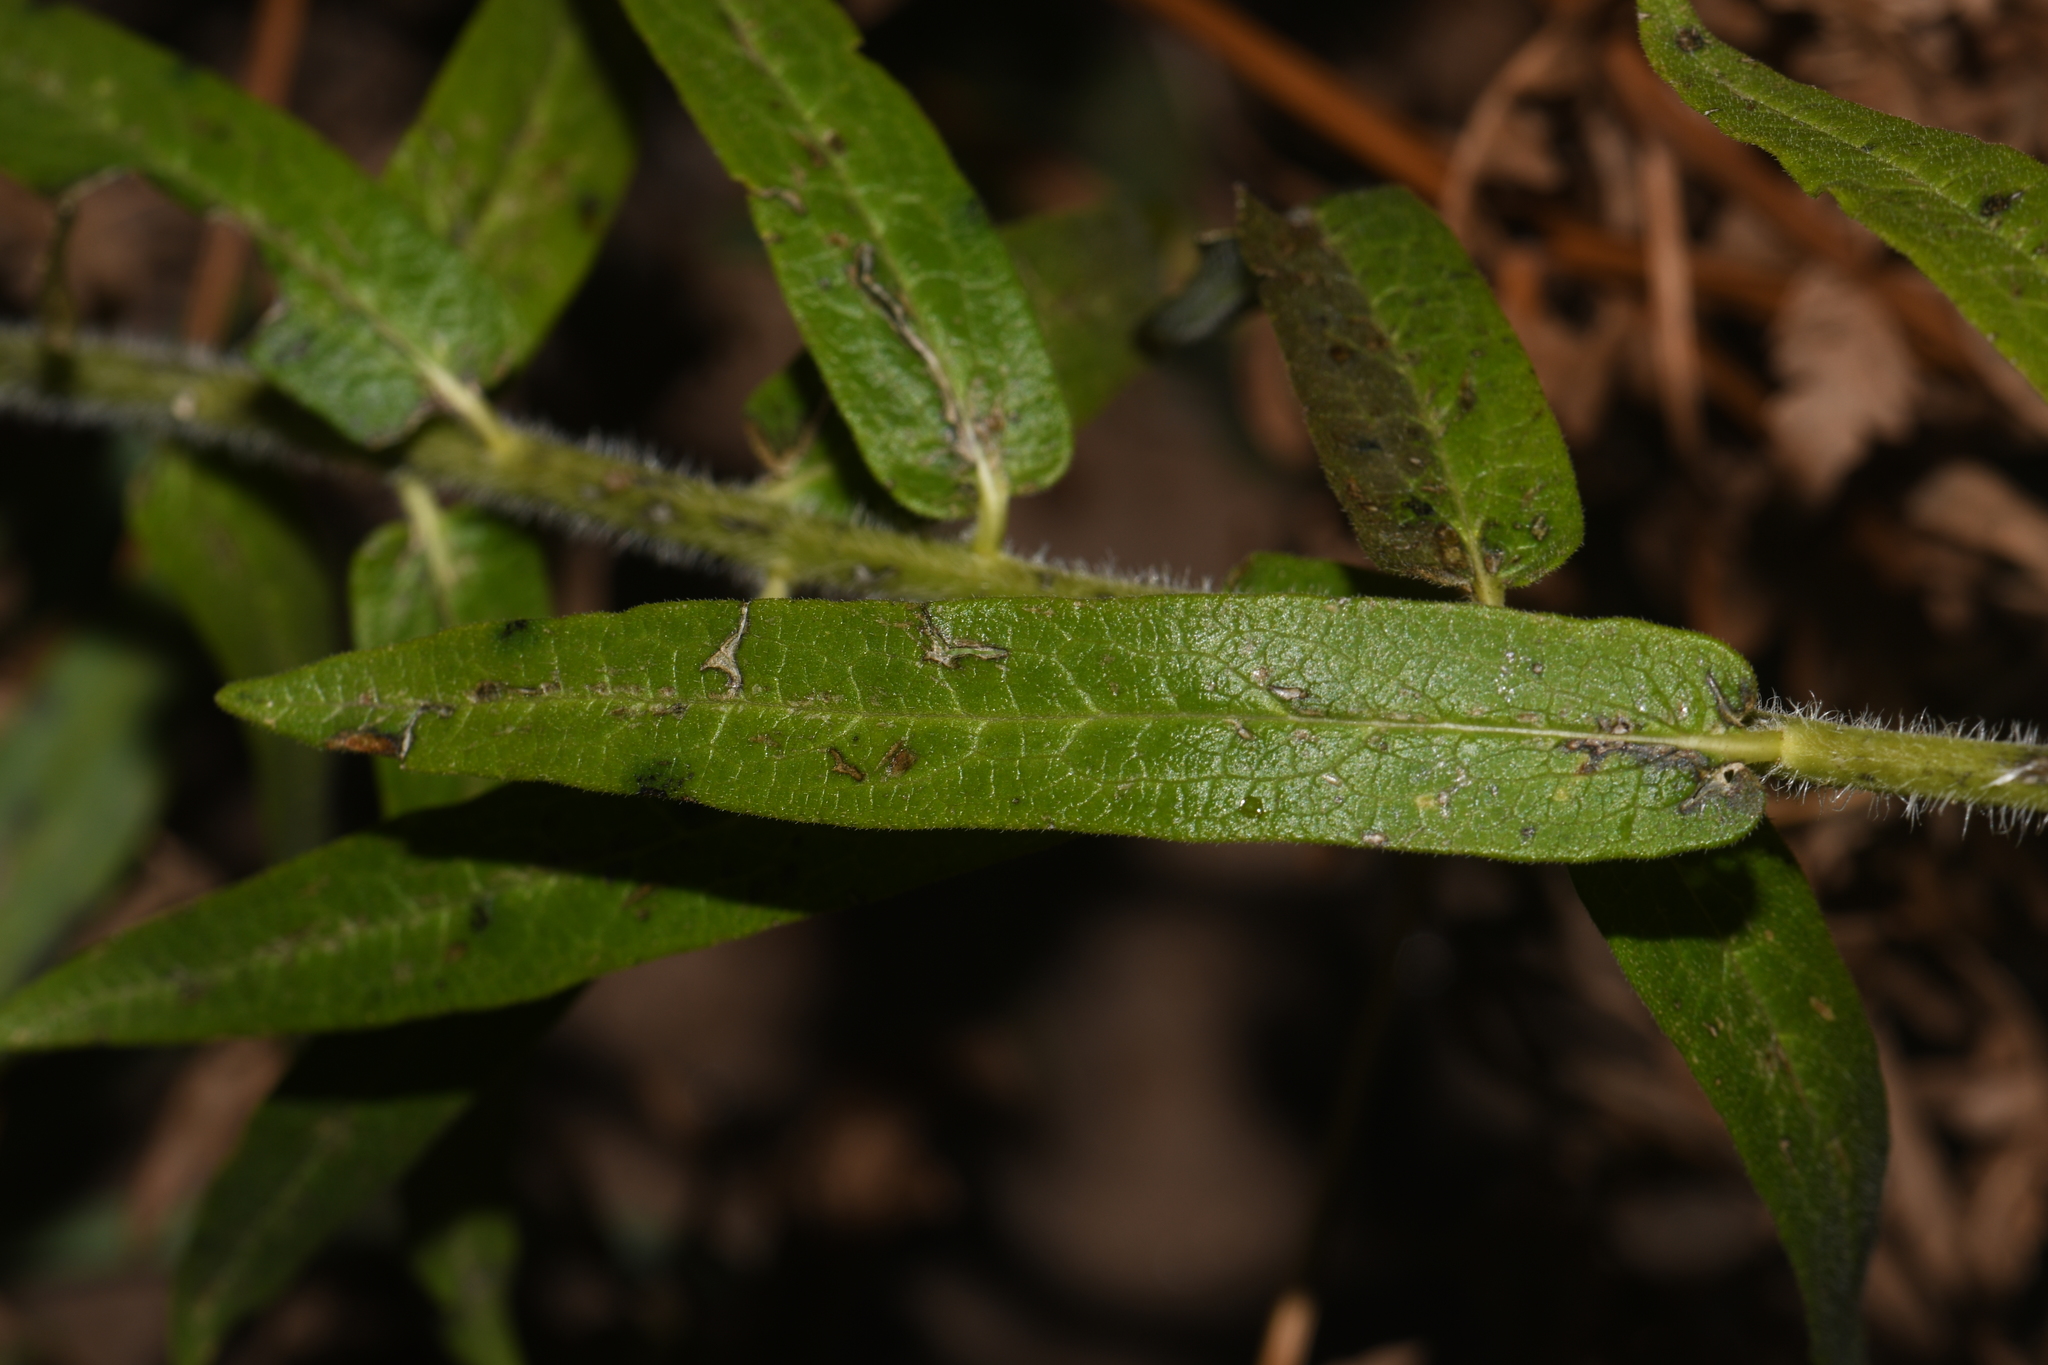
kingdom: Plantae
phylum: Tracheophyta
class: Magnoliopsida
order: Gentianales
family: Apocynaceae
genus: Asclepias
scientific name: Asclepias tuberosa
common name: Butterfly milkweed
